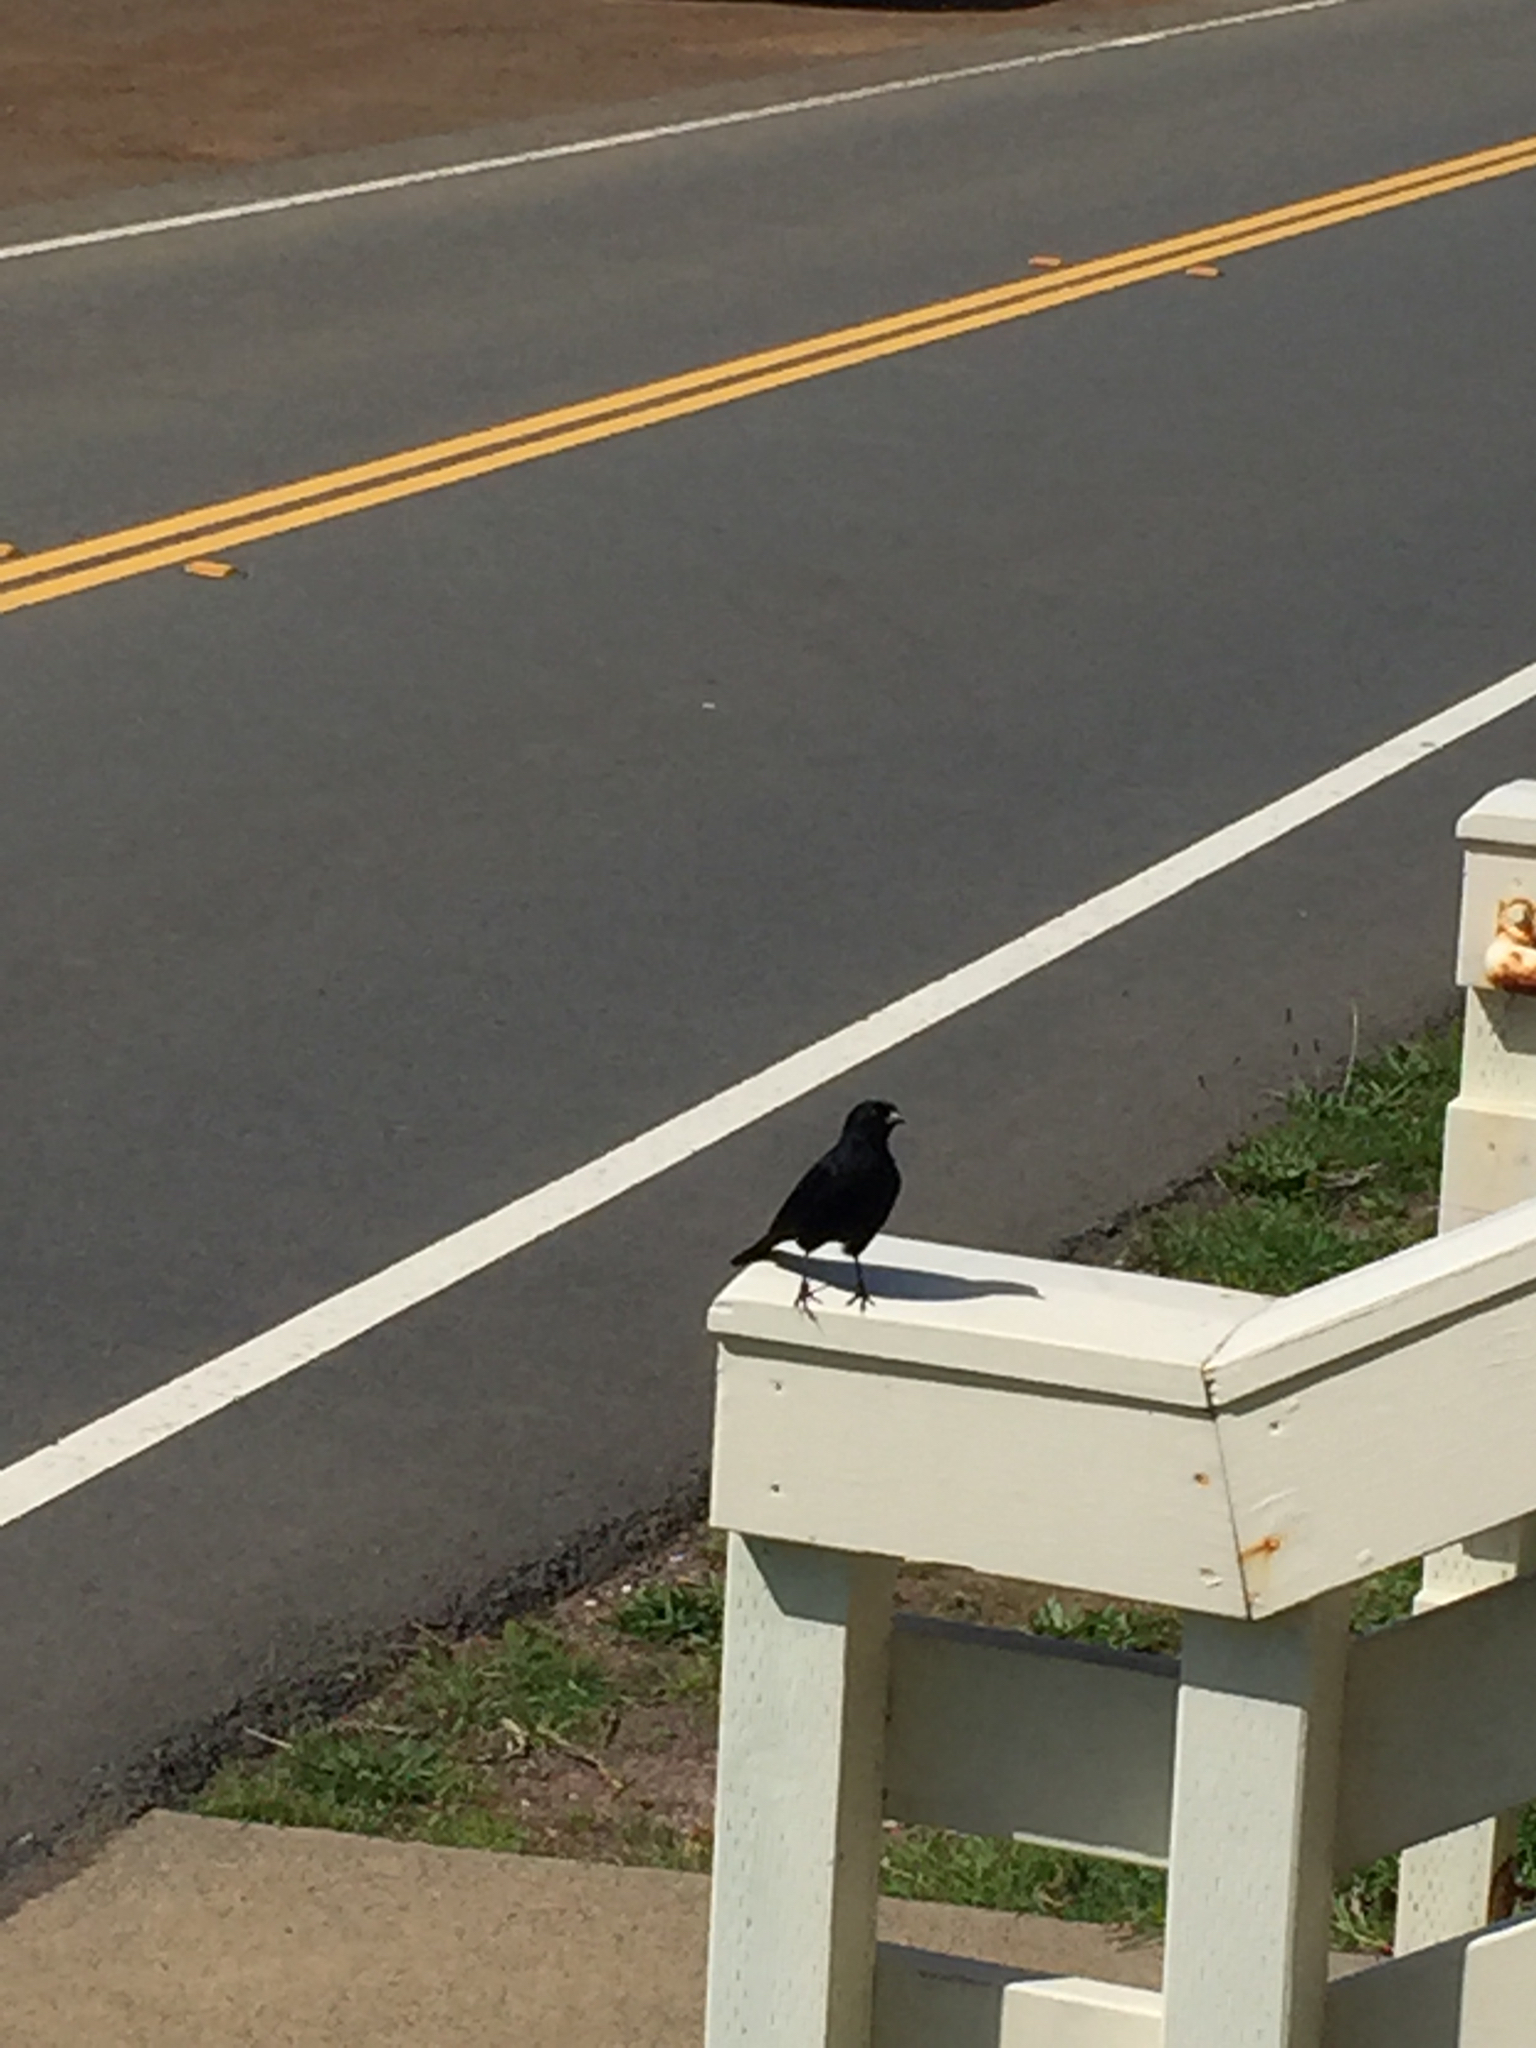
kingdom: Animalia
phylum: Chordata
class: Aves
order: Passeriformes
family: Icteridae
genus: Agelaius
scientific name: Agelaius phoeniceus
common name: Red-winged blackbird
